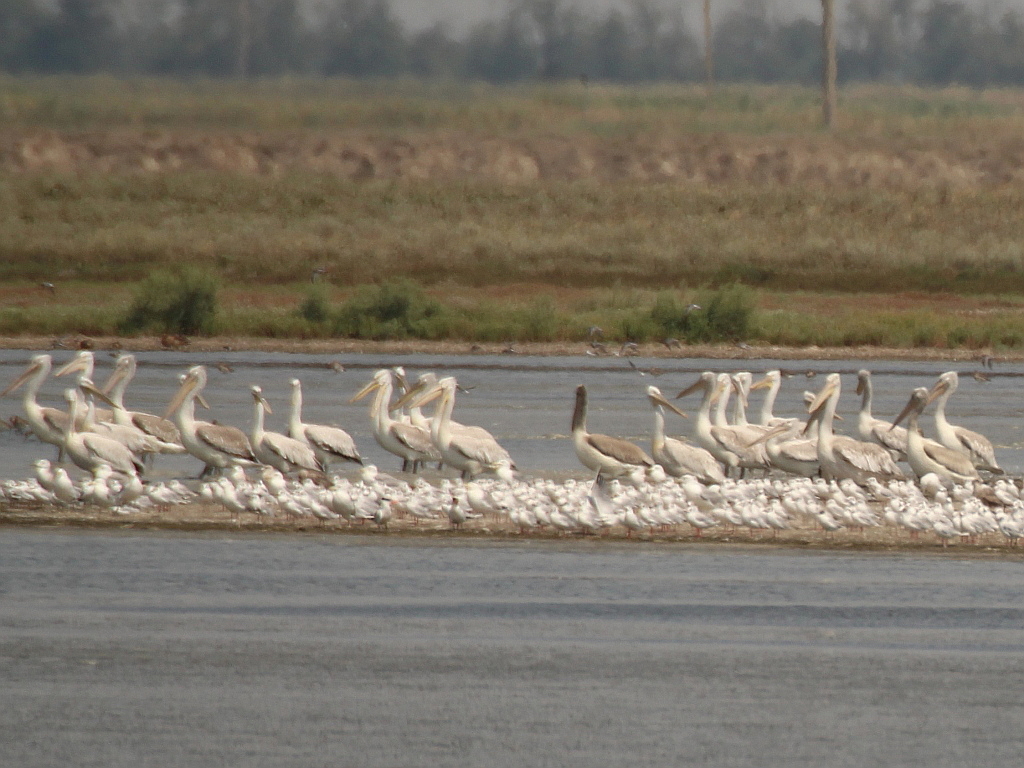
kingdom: Animalia
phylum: Chordata
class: Aves
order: Pelecaniformes
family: Pelecanidae
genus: Pelecanus
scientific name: Pelecanus crispus
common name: Dalmatian pelican
